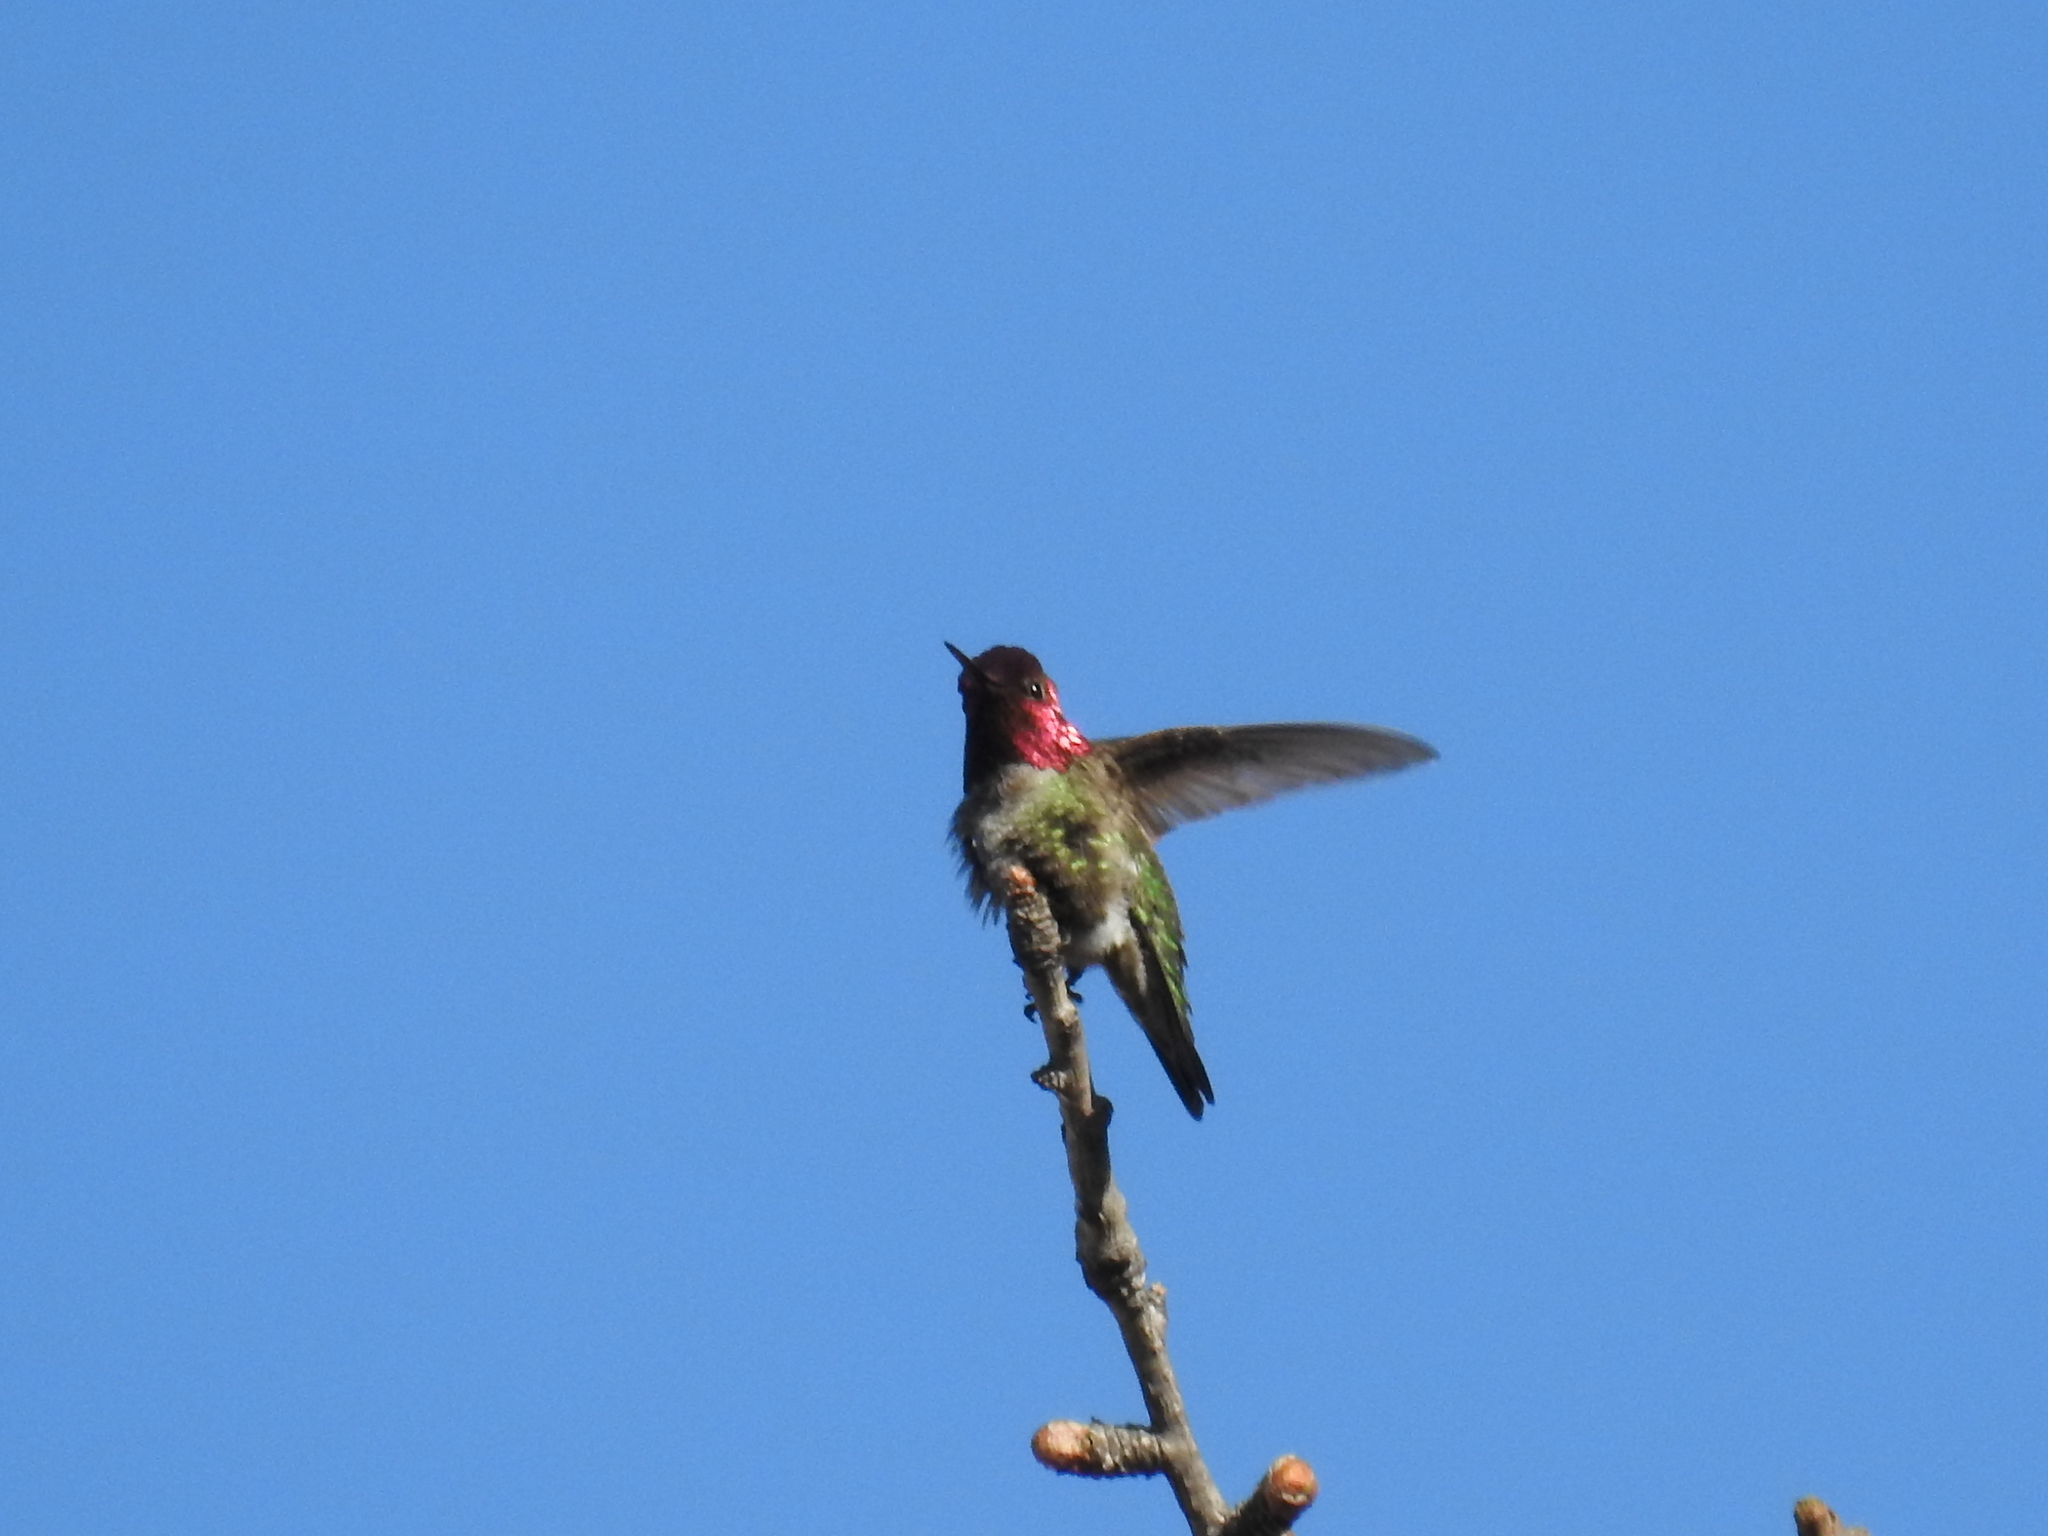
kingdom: Animalia
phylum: Chordata
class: Aves
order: Apodiformes
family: Trochilidae
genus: Calypte
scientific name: Calypte anna
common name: Anna's hummingbird
